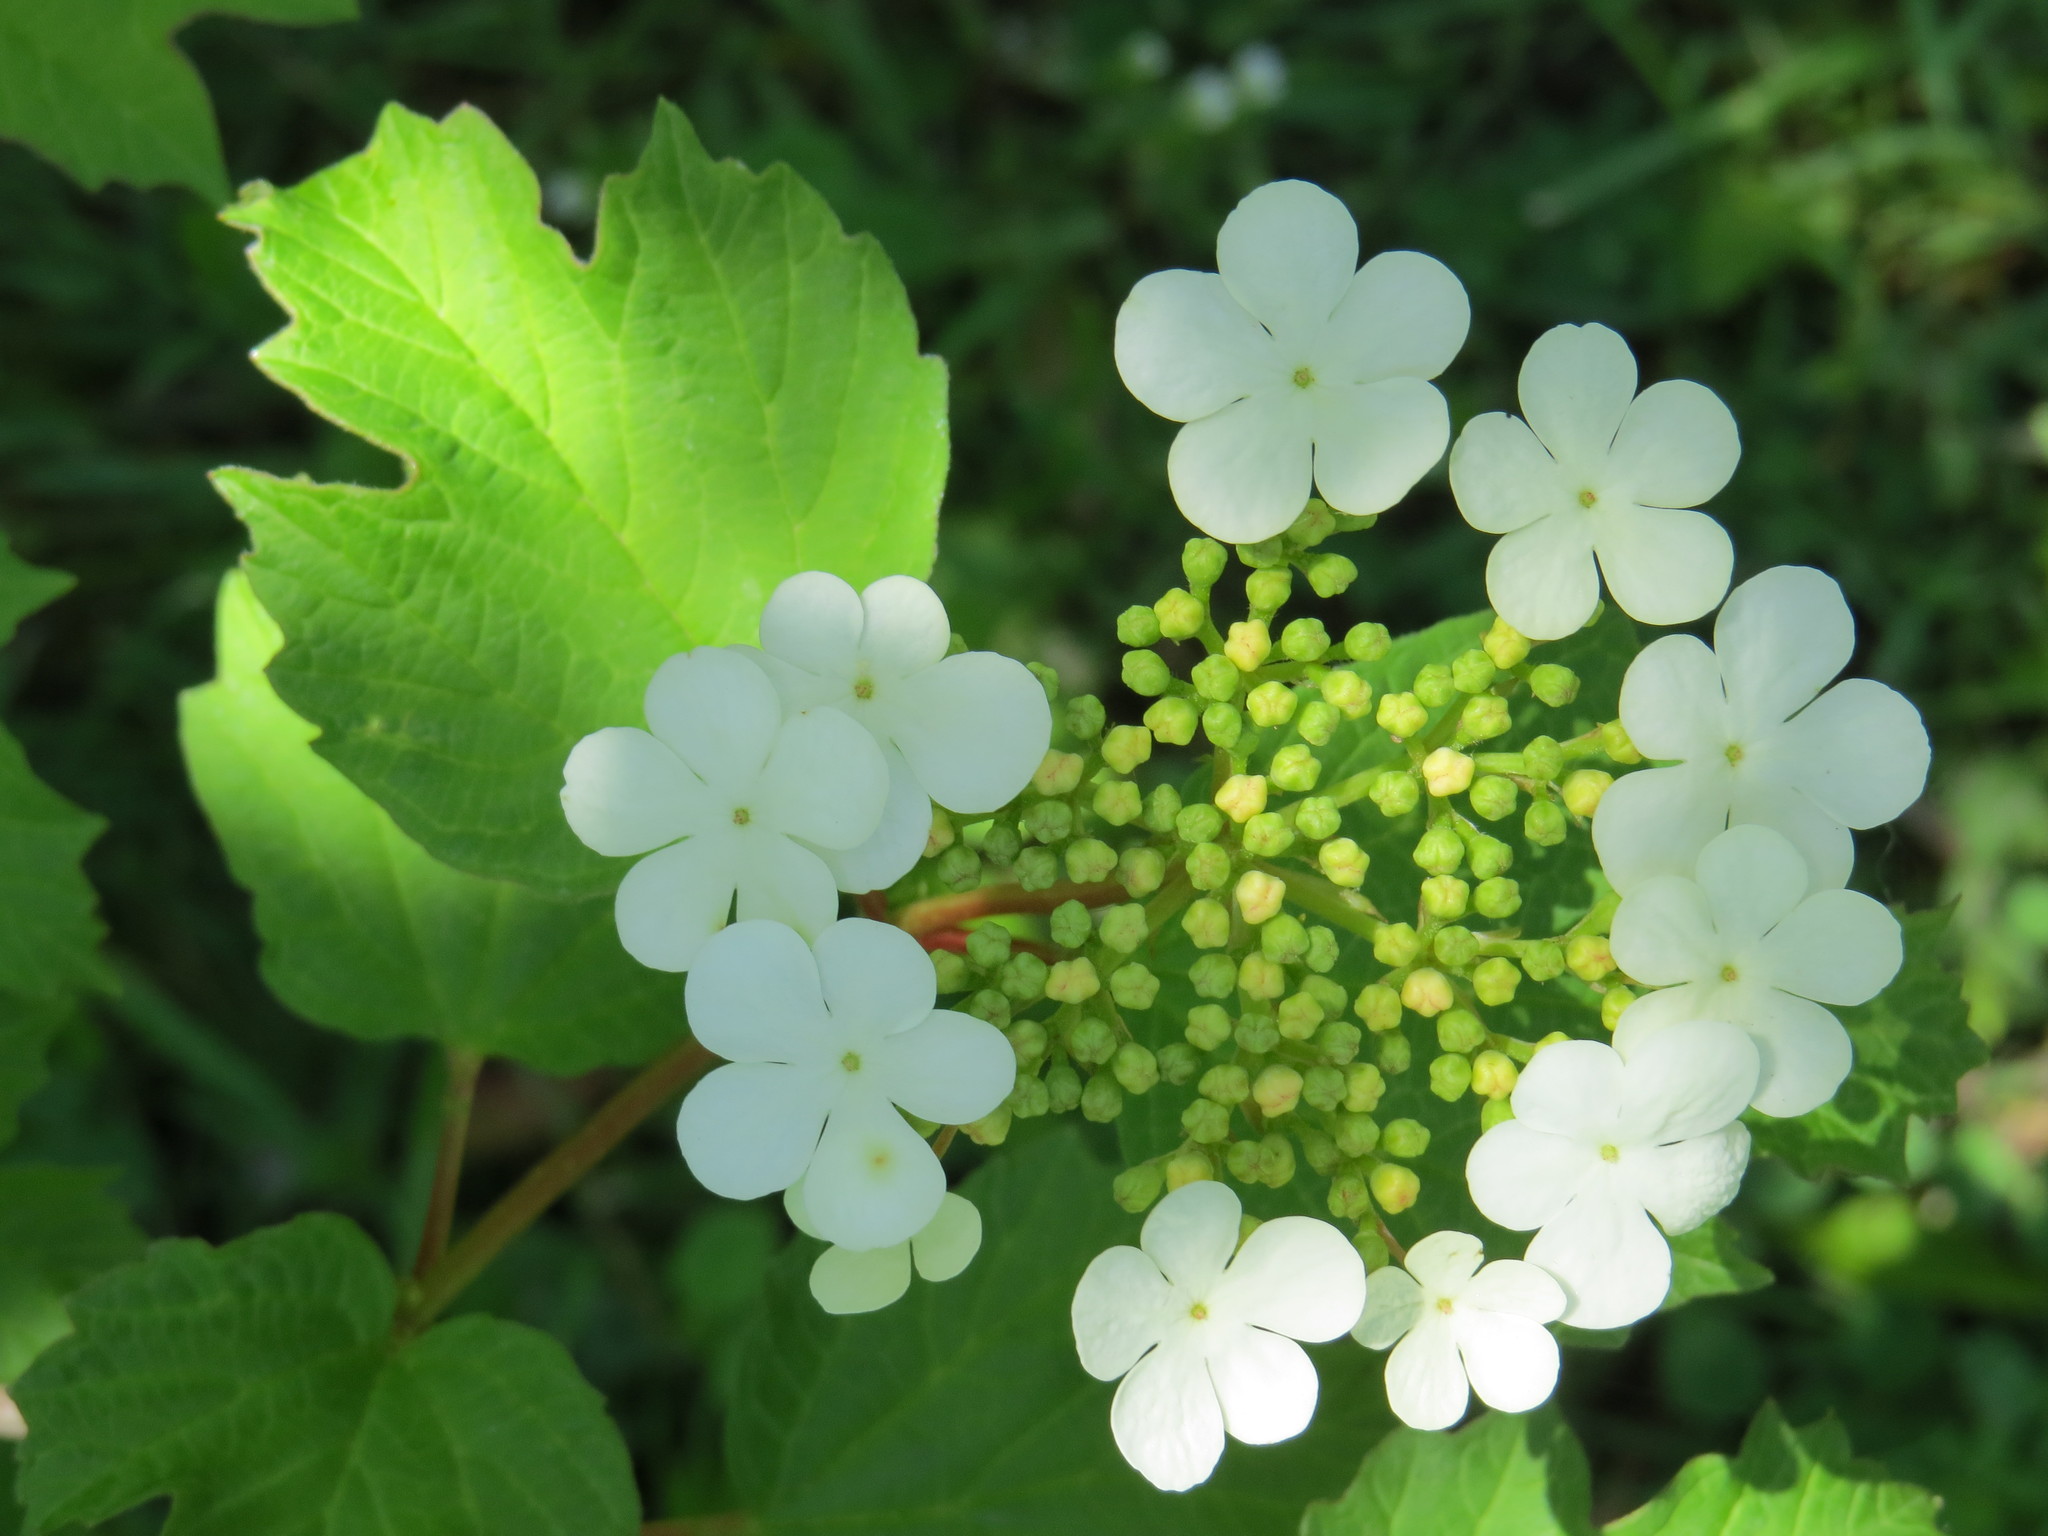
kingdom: Plantae
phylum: Tracheophyta
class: Magnoliopsida
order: Dipsacales
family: Viburnaceae
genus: Viburnum
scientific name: Viburnum opulus
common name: Guelder-rose
